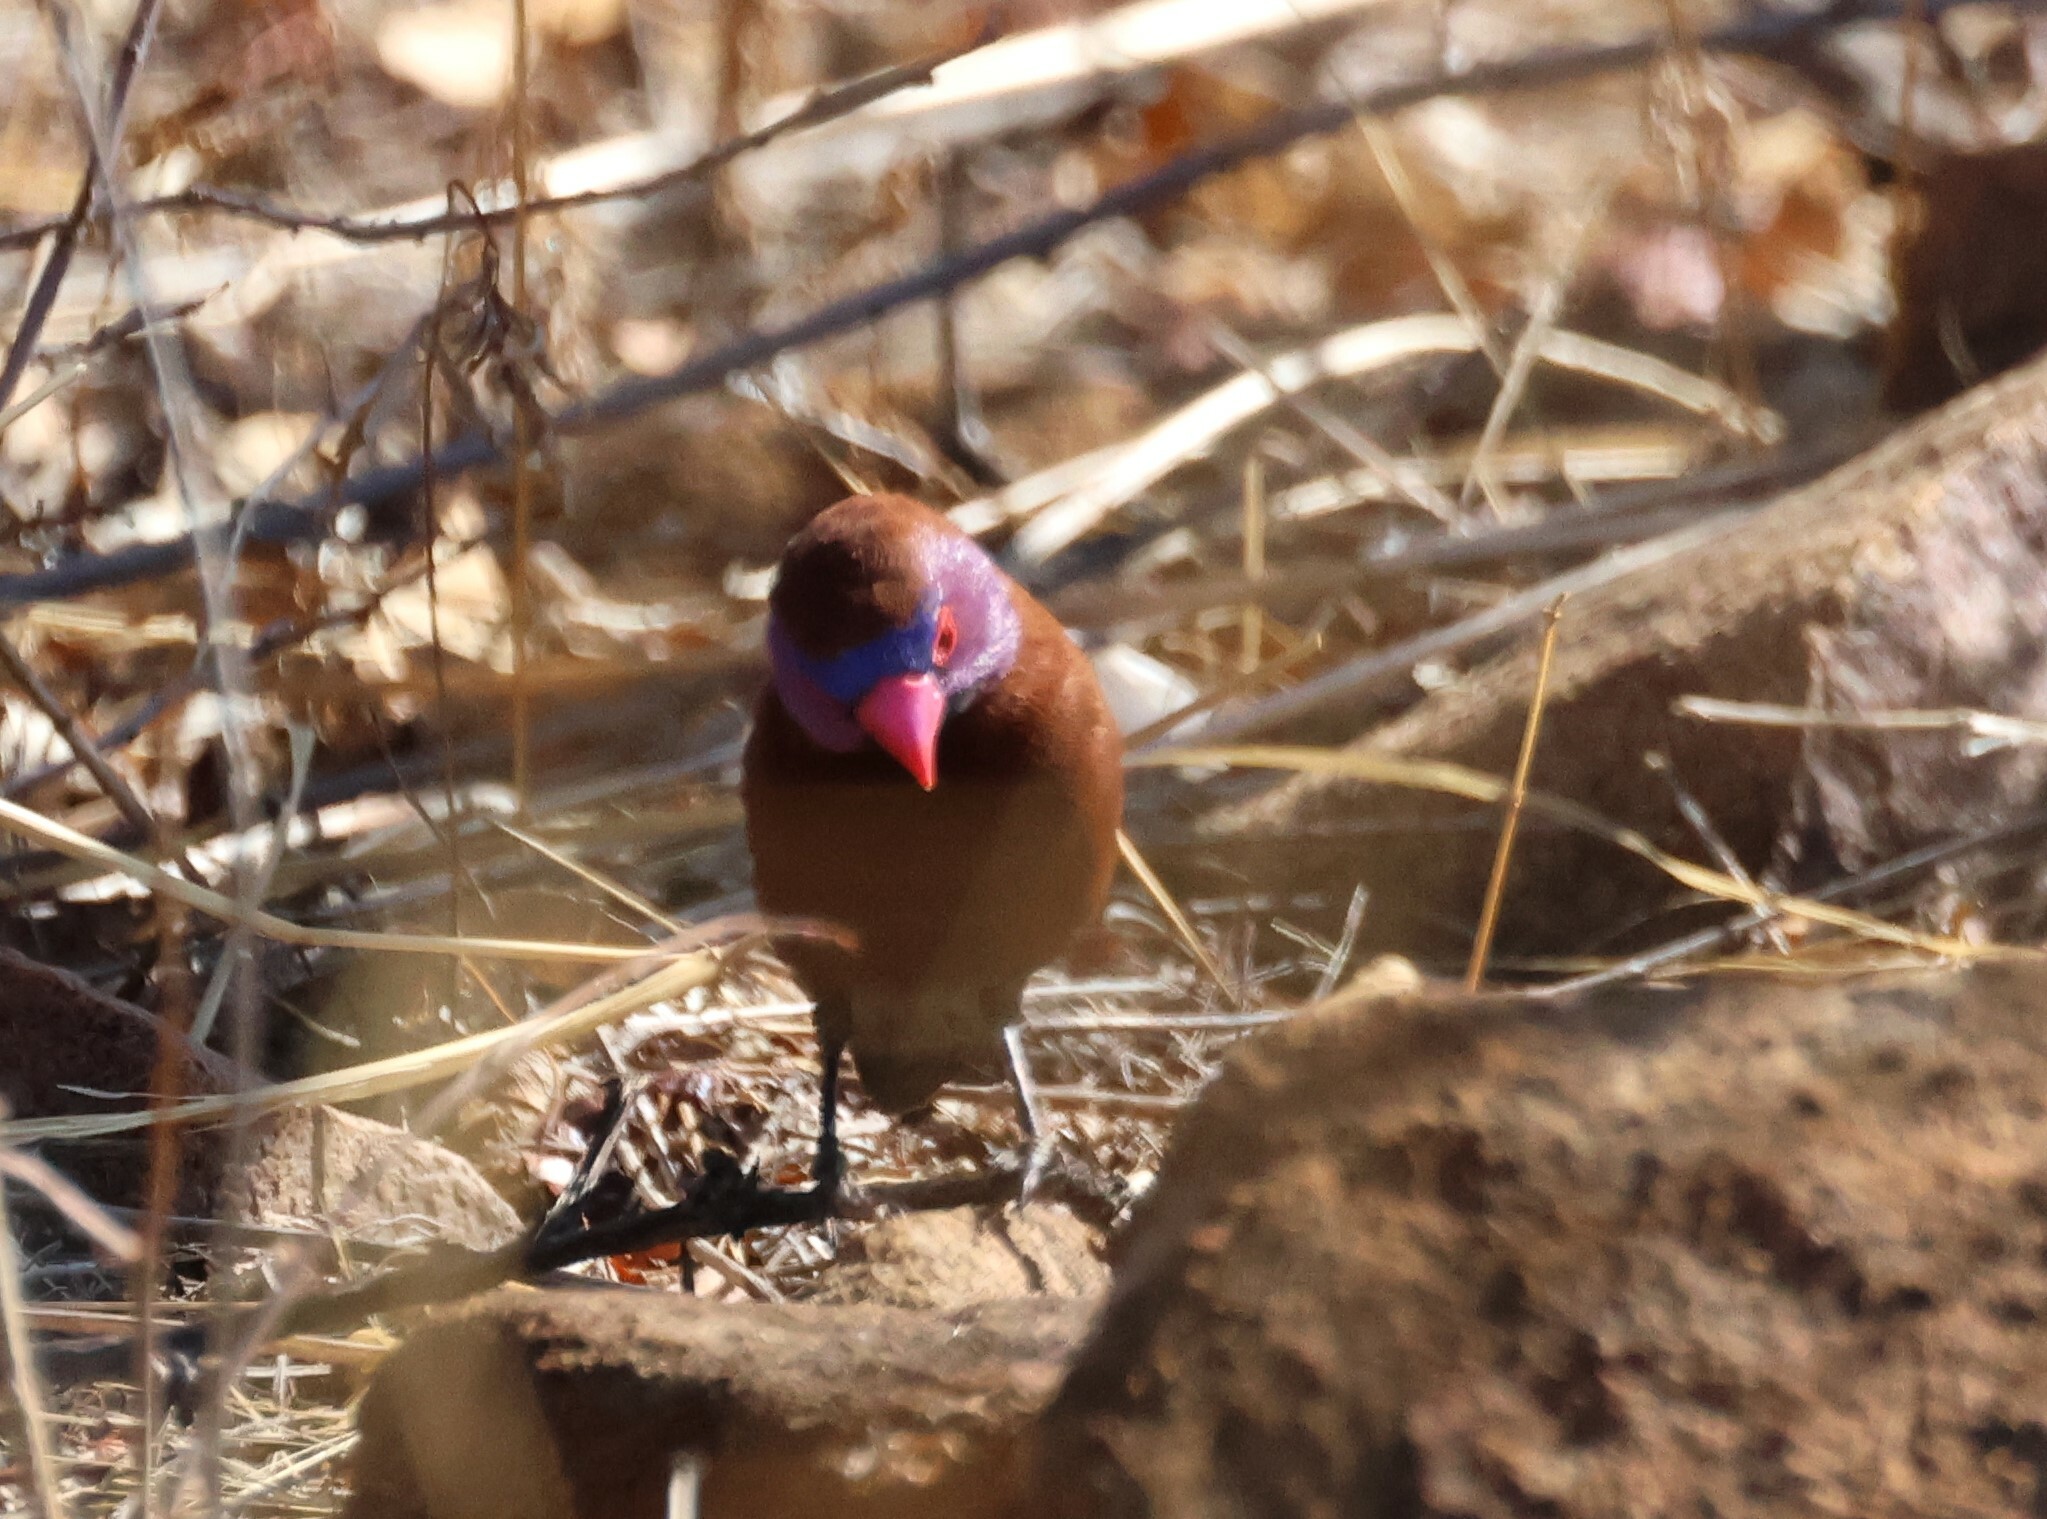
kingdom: Animalia
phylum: Chordata
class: Aves
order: Passeriformes
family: Estrildidae
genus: Uraeginthus
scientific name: Uraeginthus granatinus
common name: Violet-eared waxbill
